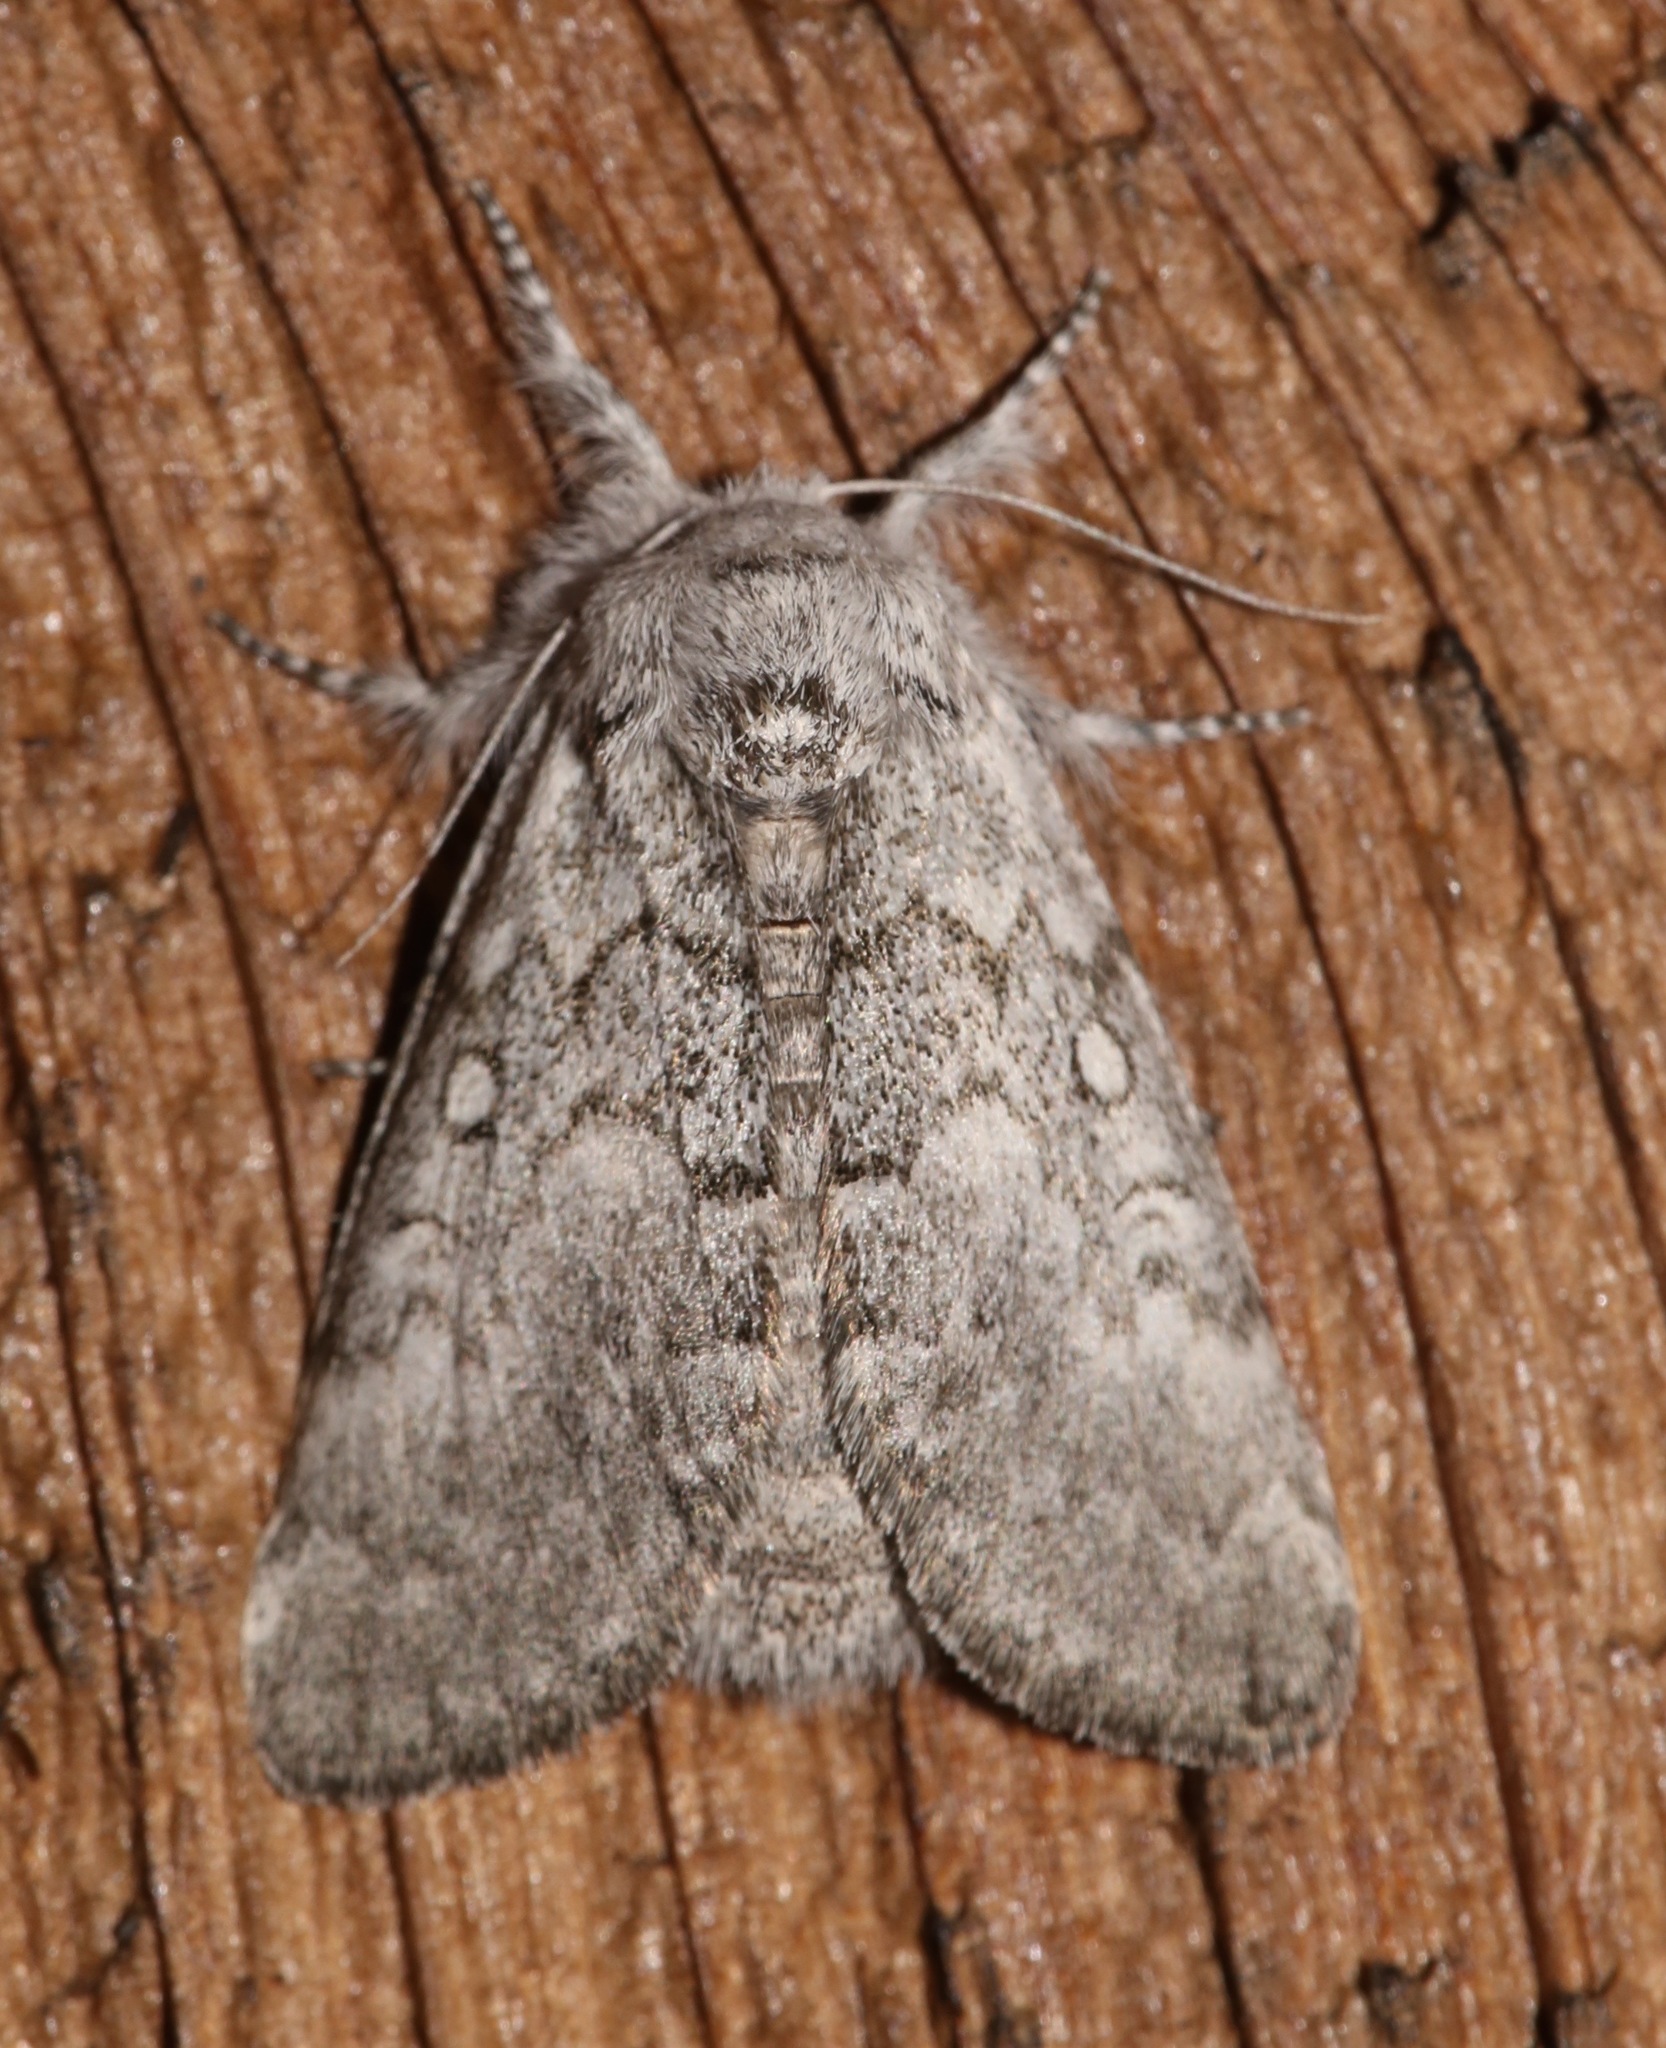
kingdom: Animalia
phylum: Arthropoda
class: Insecta
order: Lepidoptera
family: Noctuidae
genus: Colocasia
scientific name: Colocasia propinquilinea
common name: Close-banded demas
